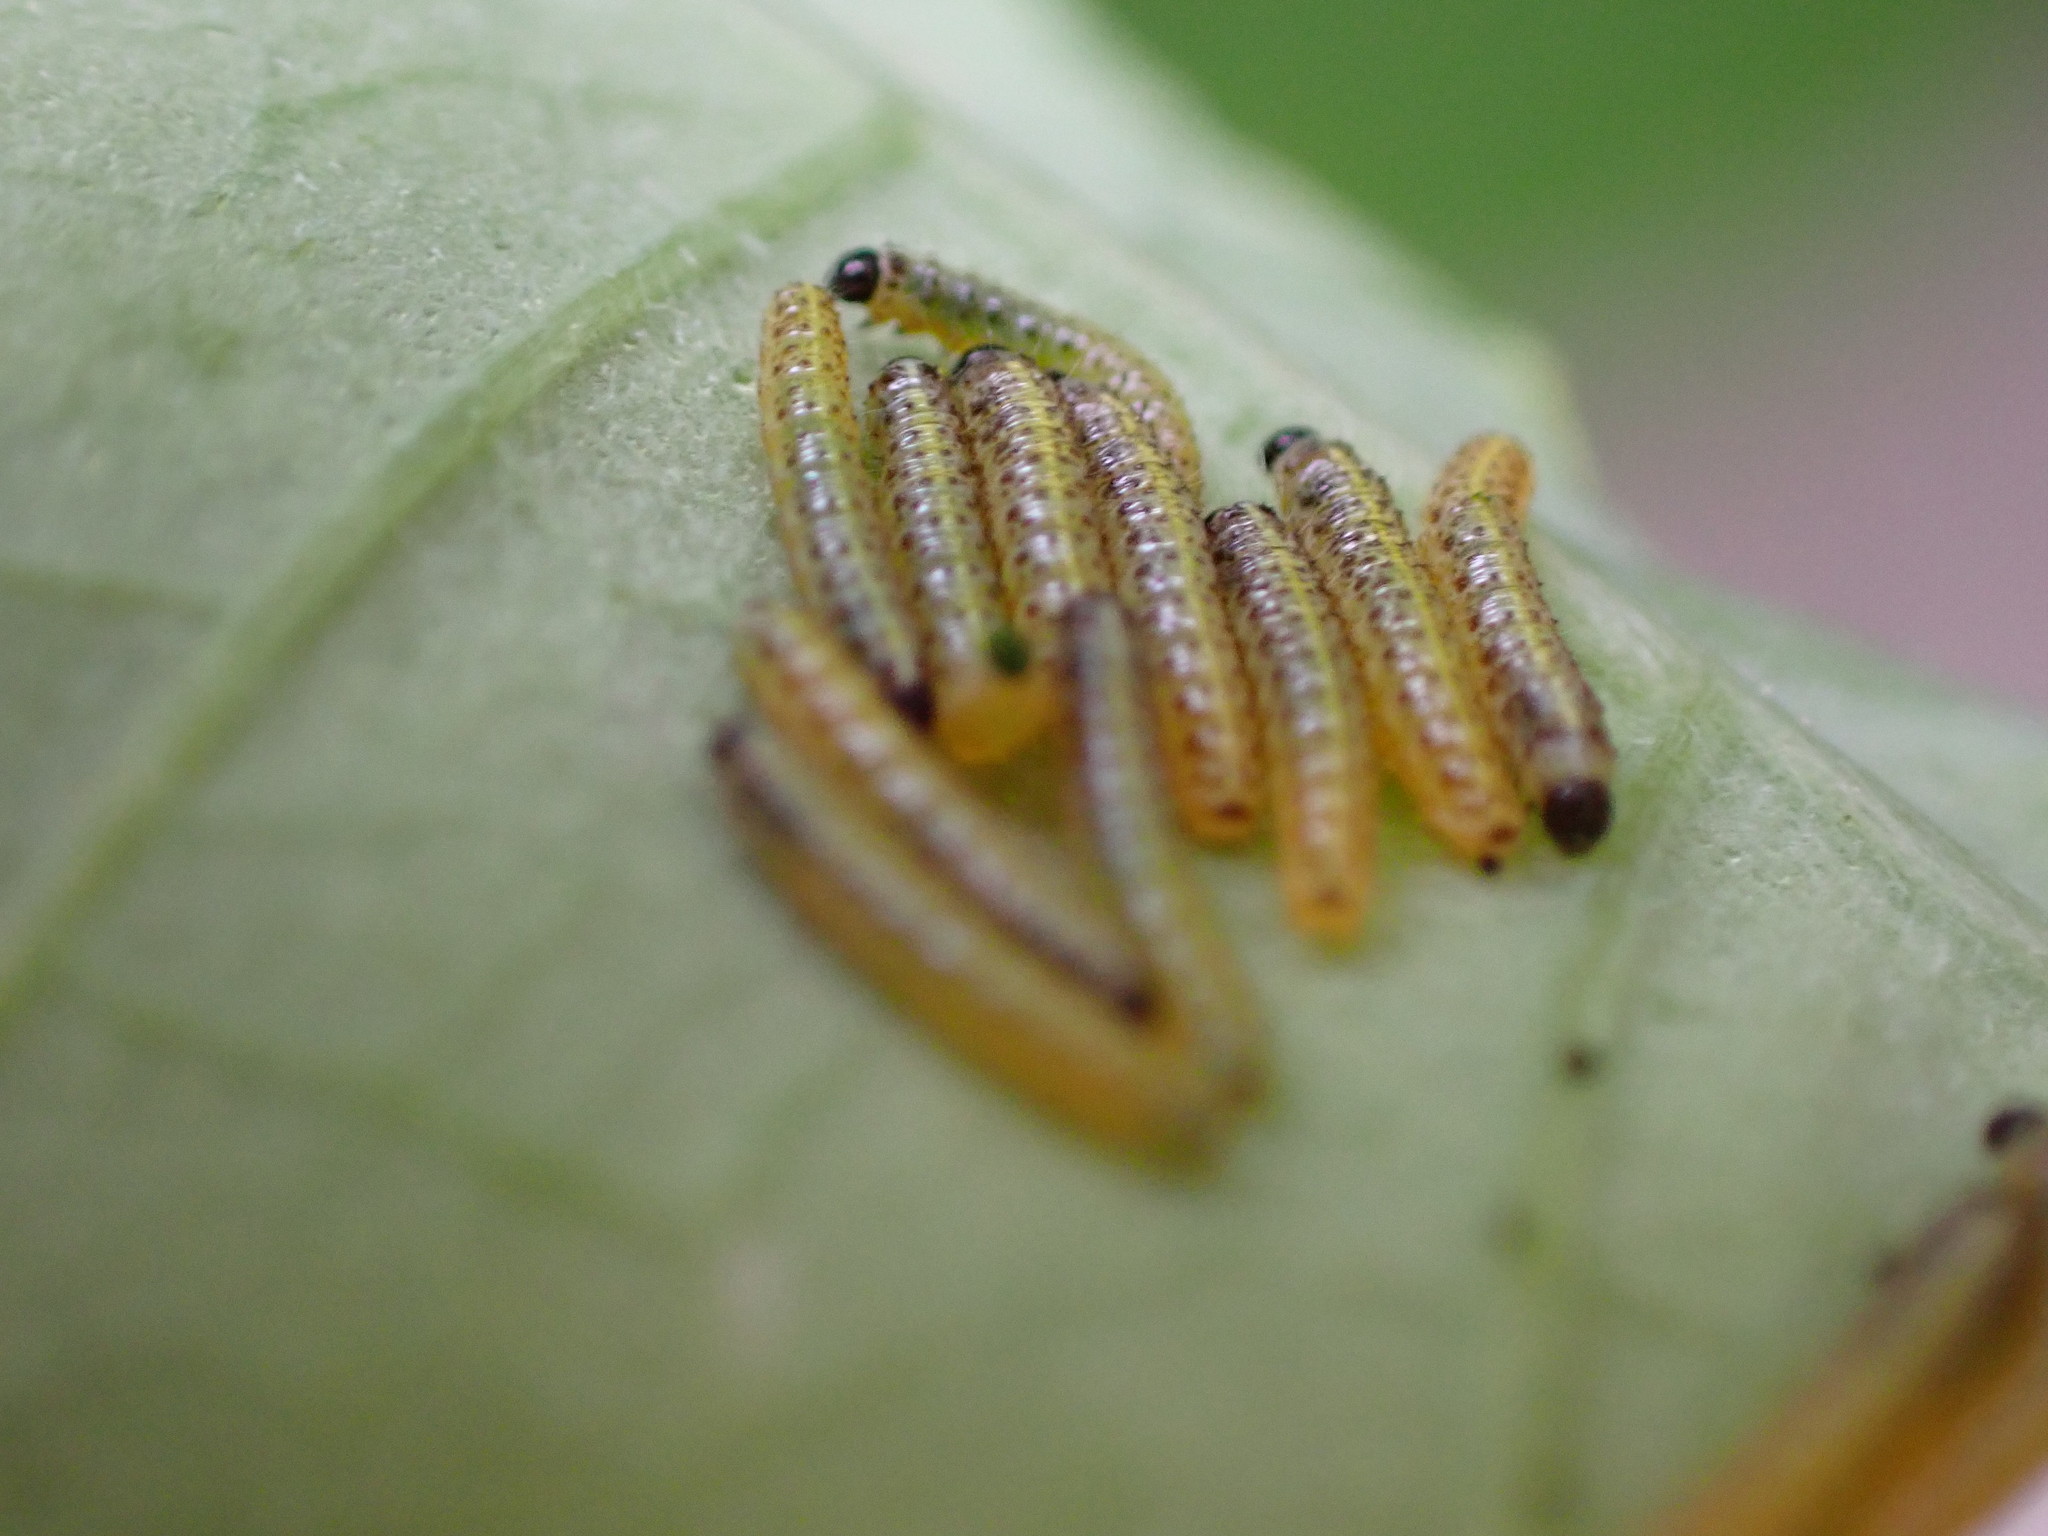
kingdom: Animalia
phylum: Arthropoda
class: Insecta
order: Lepidoptera
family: Pieridae
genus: Pieris
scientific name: Pieris brassicae
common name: Large white
